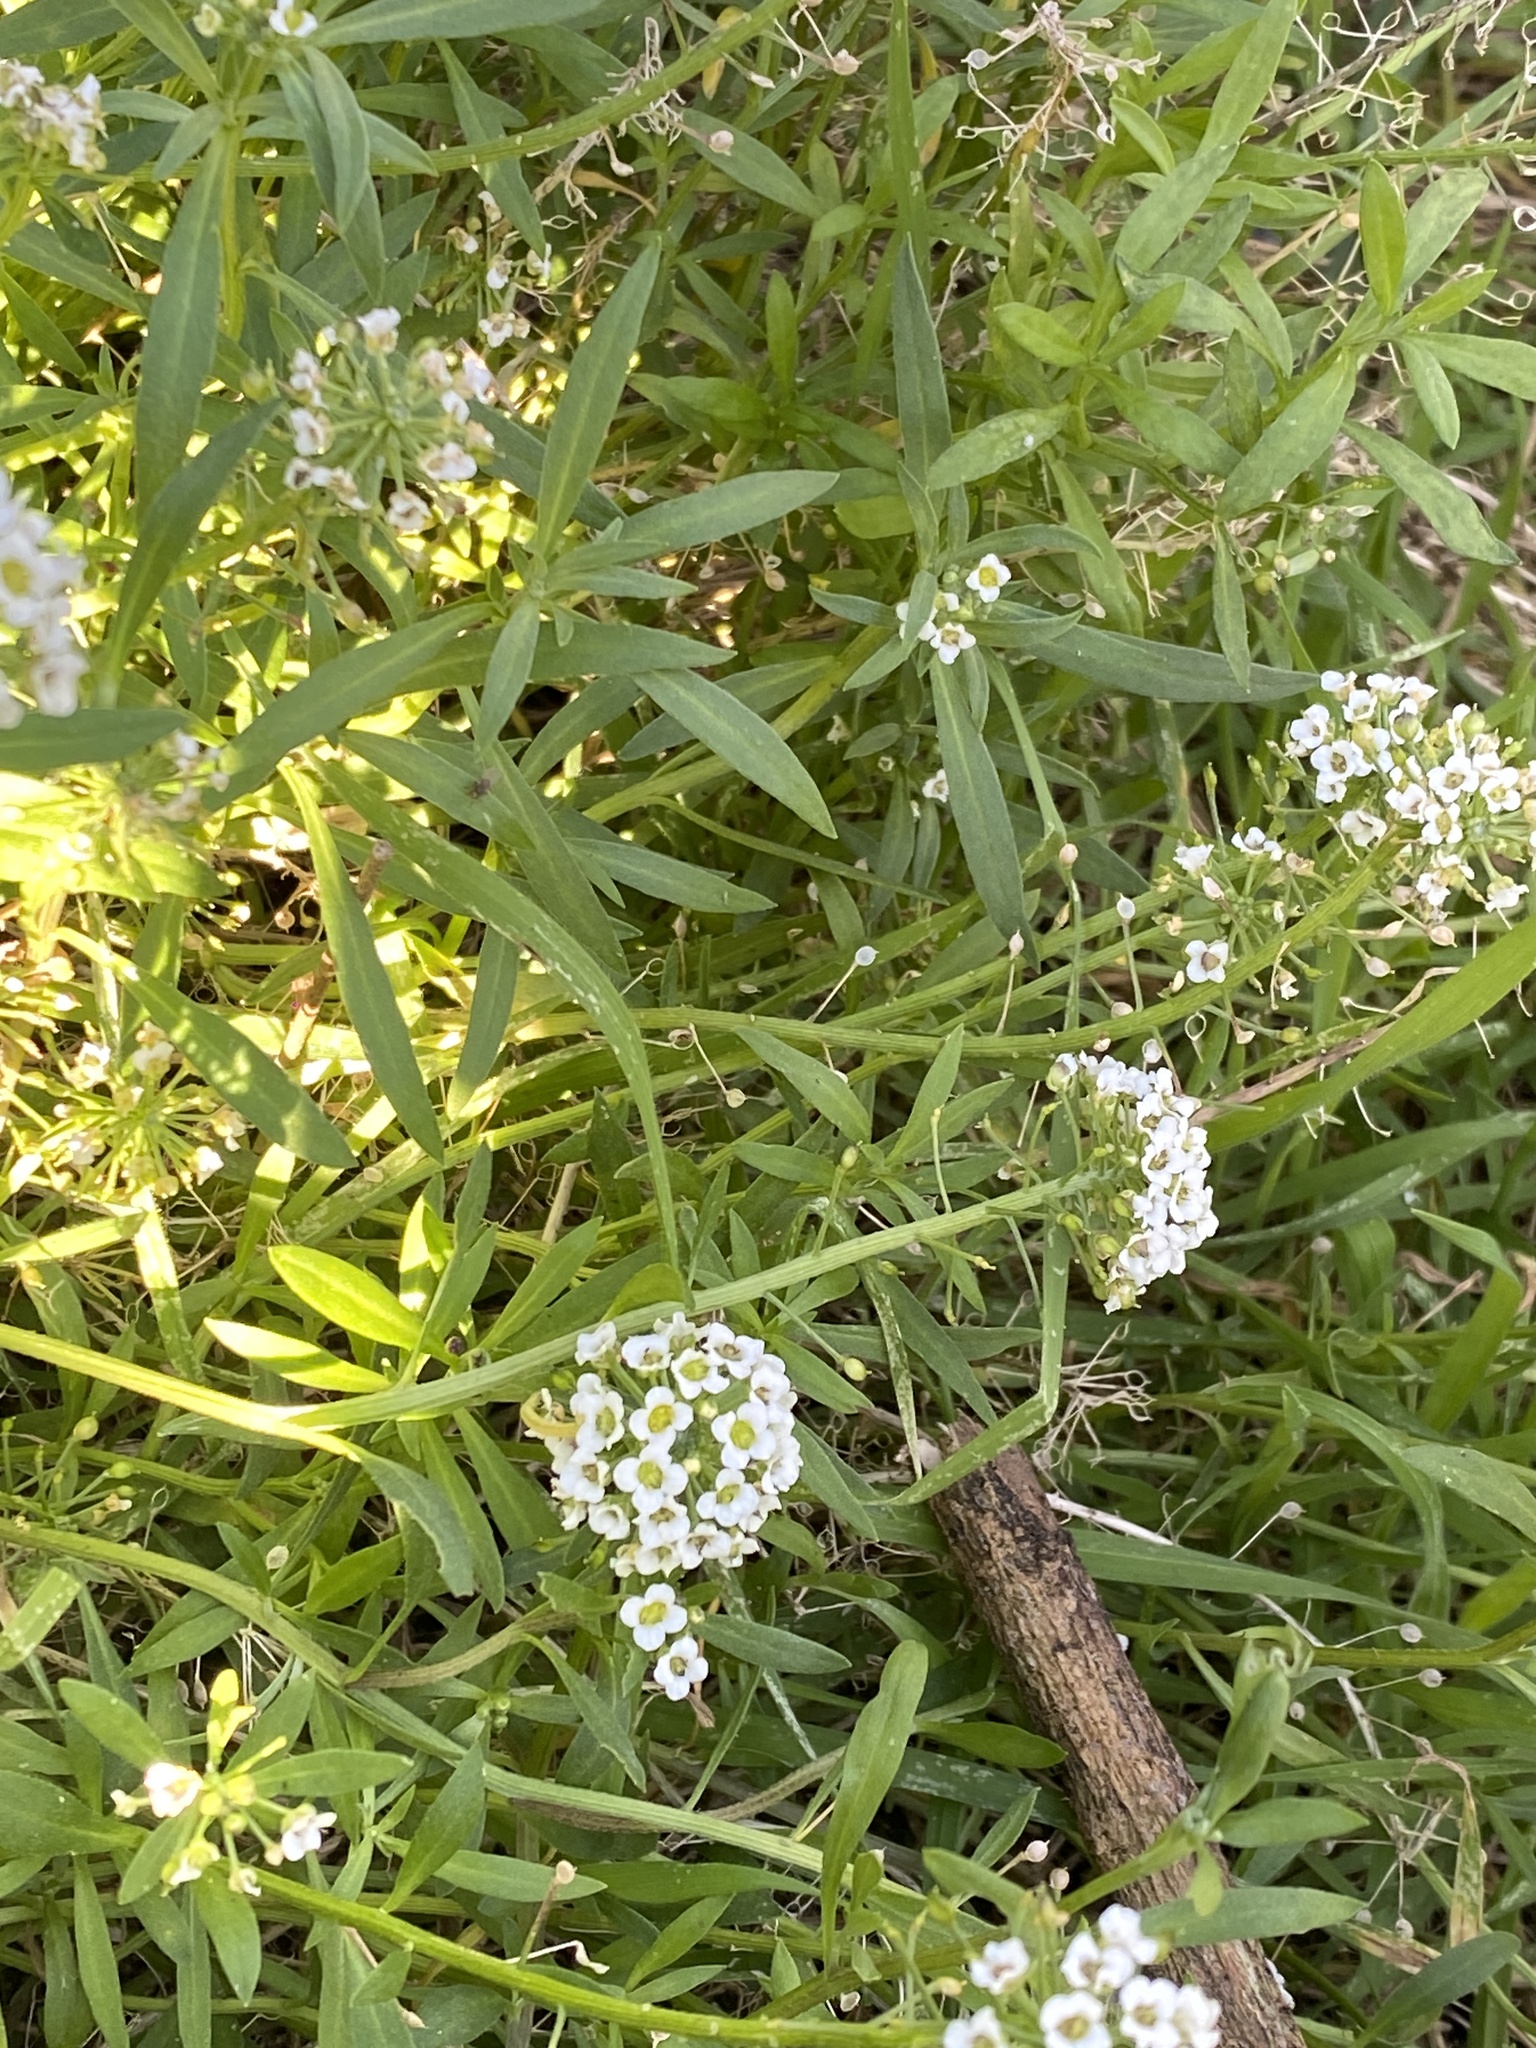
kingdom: Plantae
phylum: Tracheophyta
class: Magnoliopsida
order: Brassicales
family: Brassicaceae
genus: Lobularia
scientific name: Lobularia maritima
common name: Sweet alison
